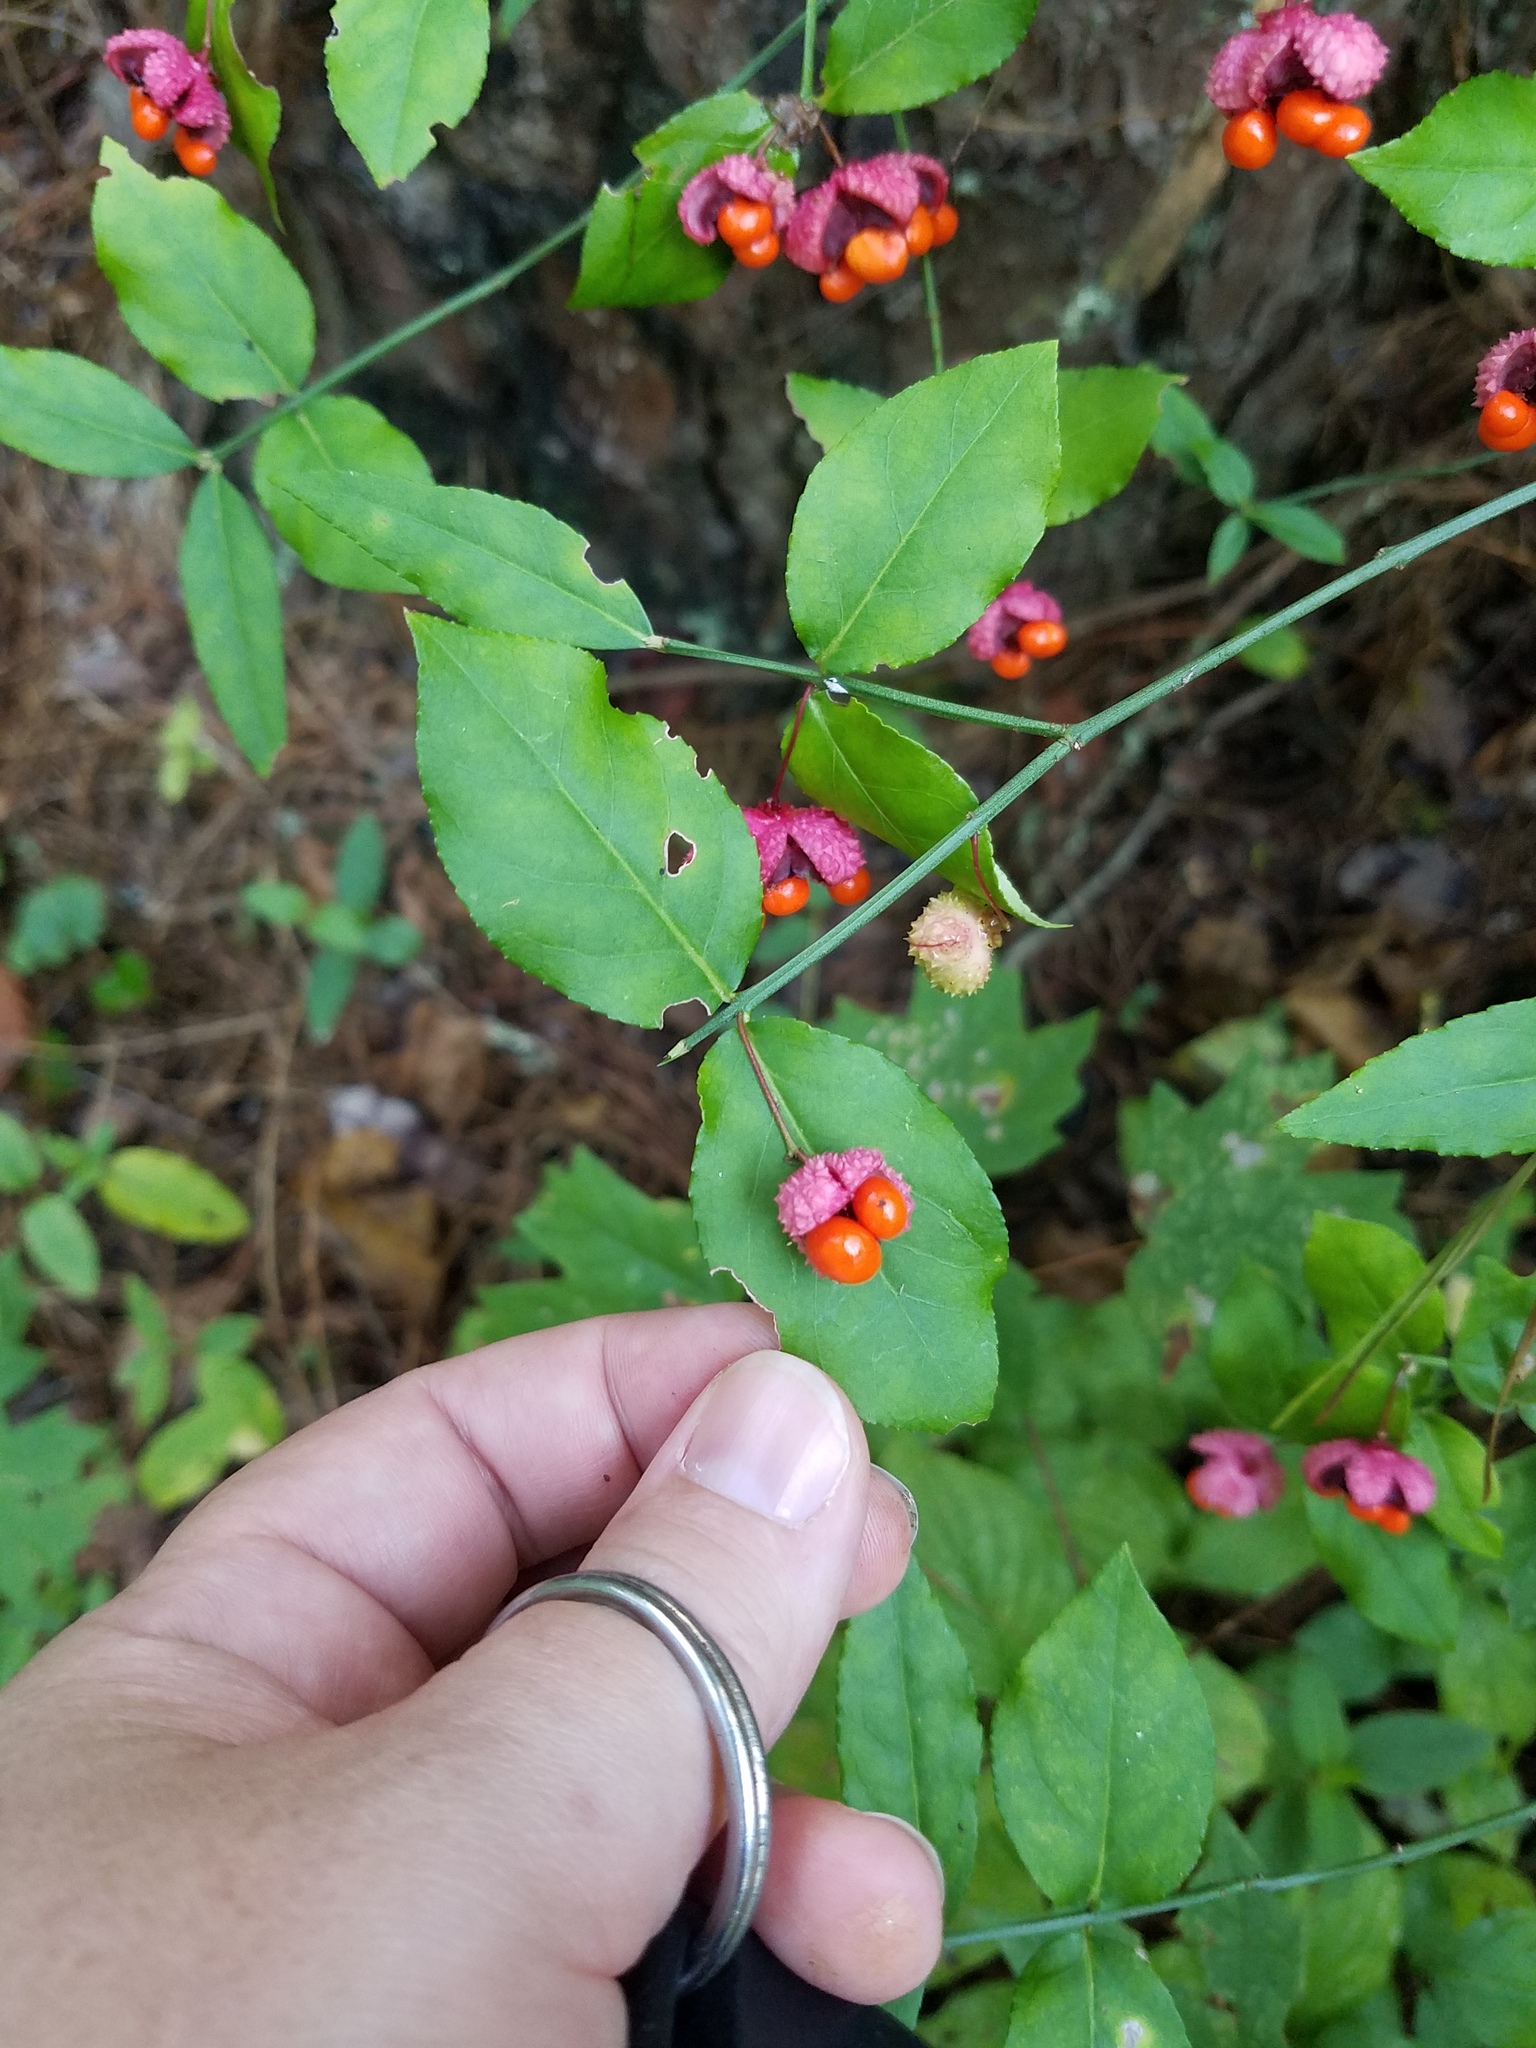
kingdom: Plantae
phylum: Tracheophyta
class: Magnoliopsida
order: Celastrales
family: Celastraceae
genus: Euonymus
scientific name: Euonymus americanus
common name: Bursting-heart
